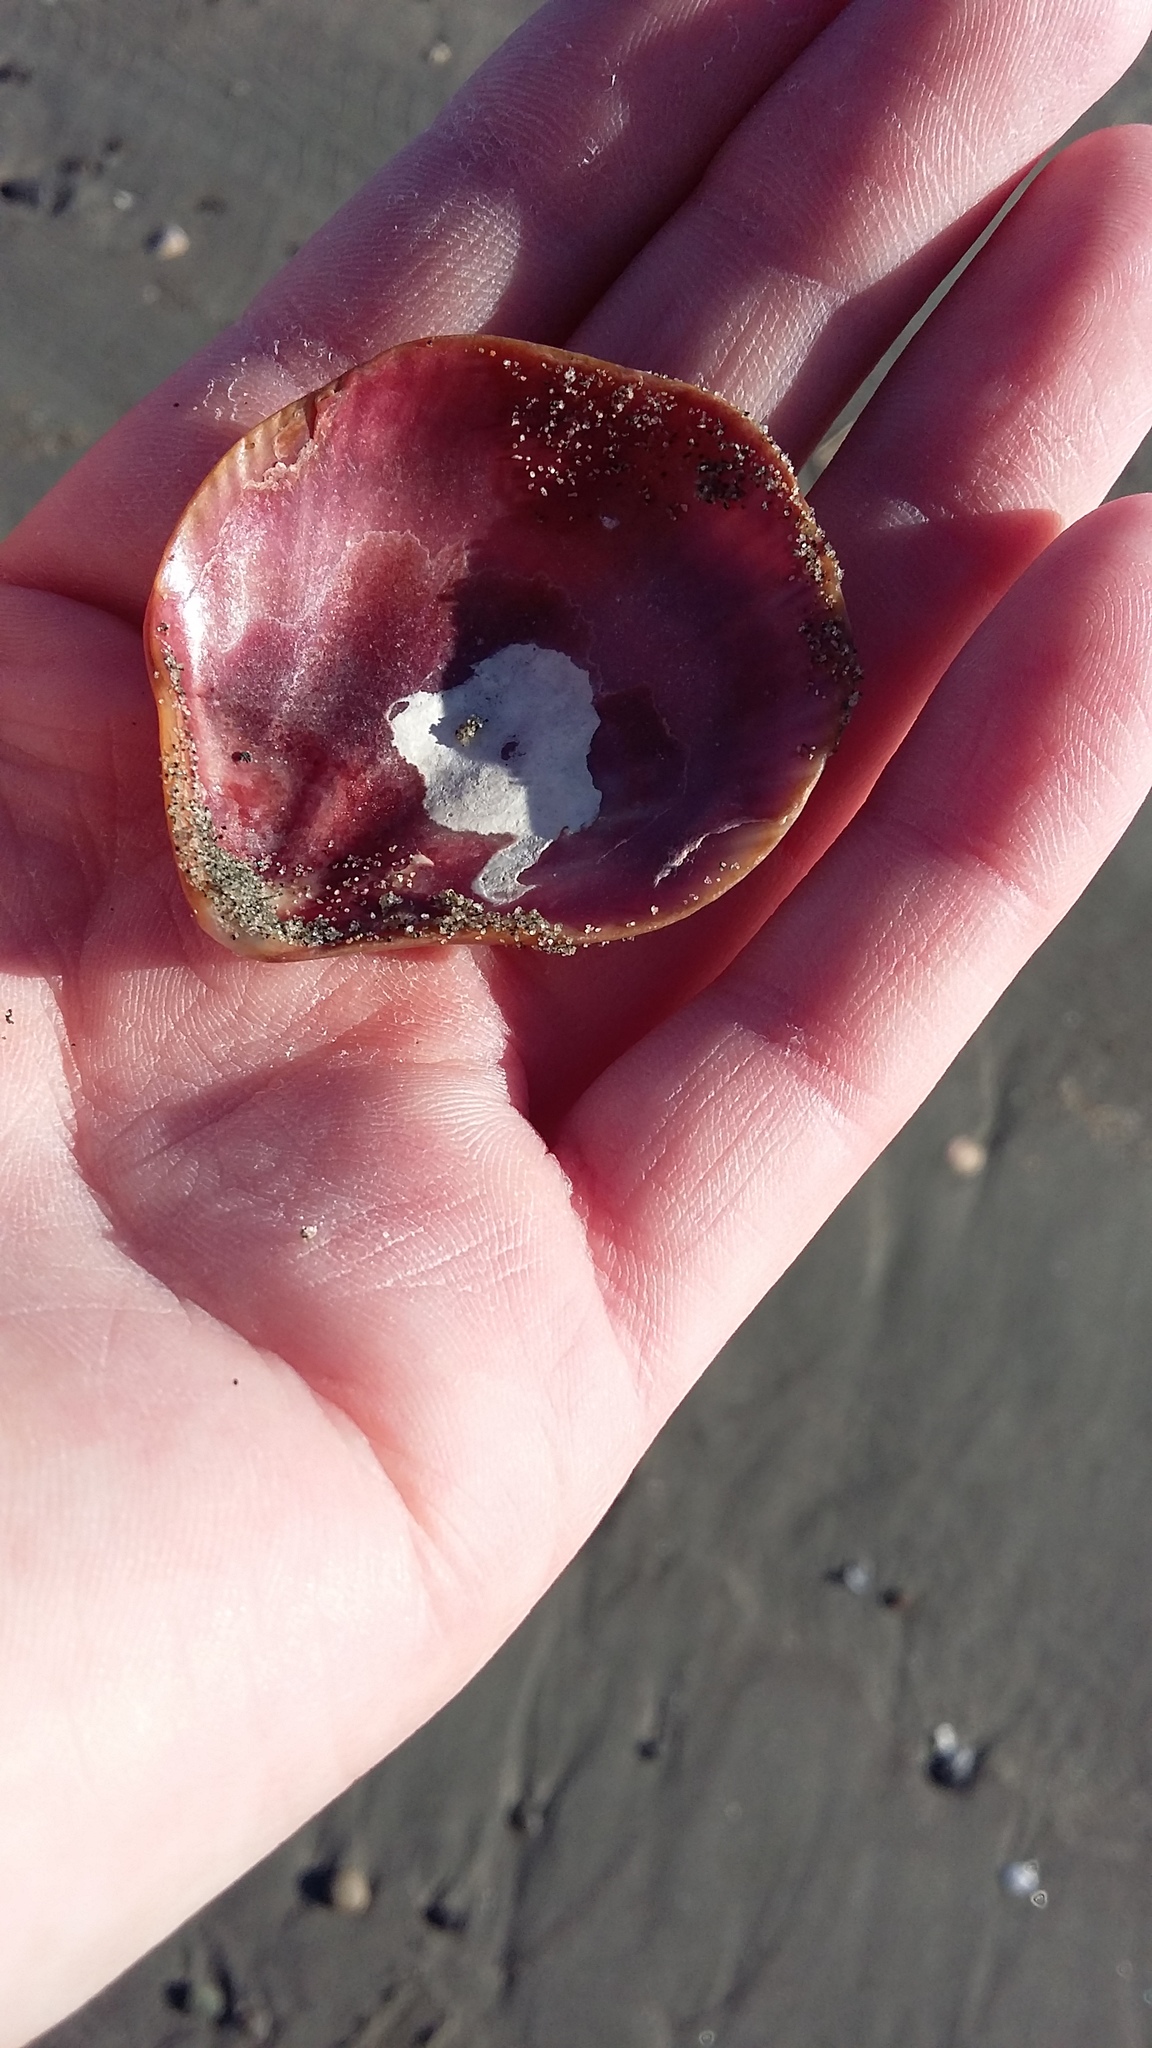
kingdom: Animalia
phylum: Mollusca
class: Bivalvia
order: Pectinida
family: Pectinidae
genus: Mesopeplum
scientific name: Mesopeplum convexum
